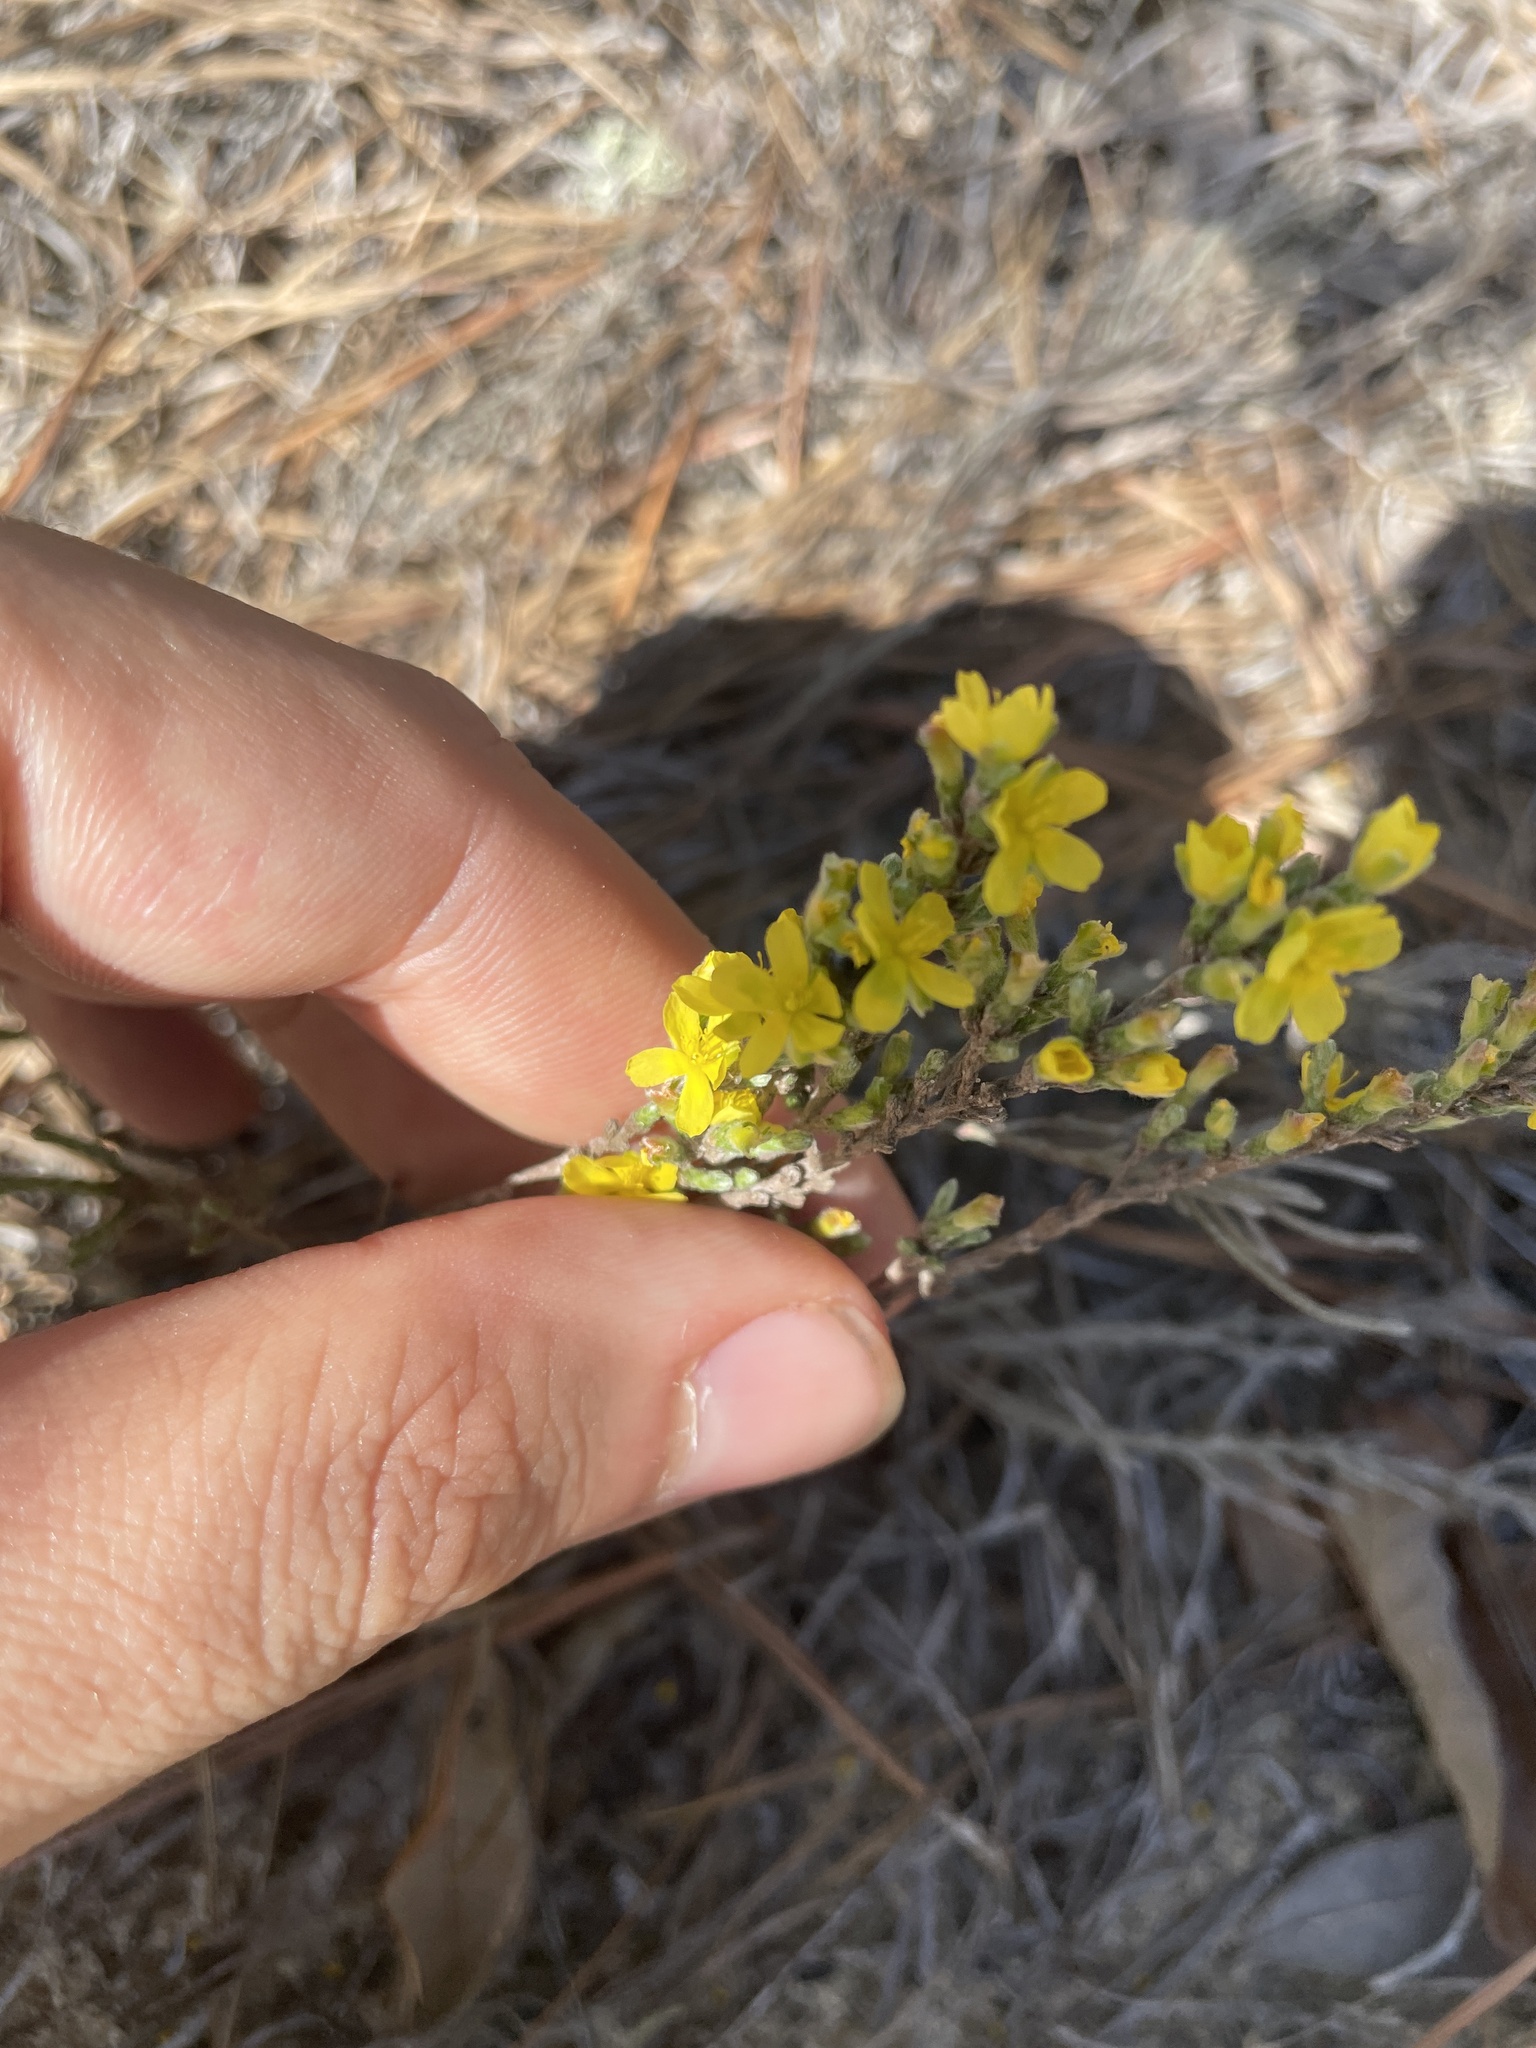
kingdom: Plantae
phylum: Tracheophyta
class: Magnoliopsida
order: Malvales
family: Cistaceae
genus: Hudsonia
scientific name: Hudsonia tomentosa
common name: Beach-heath
